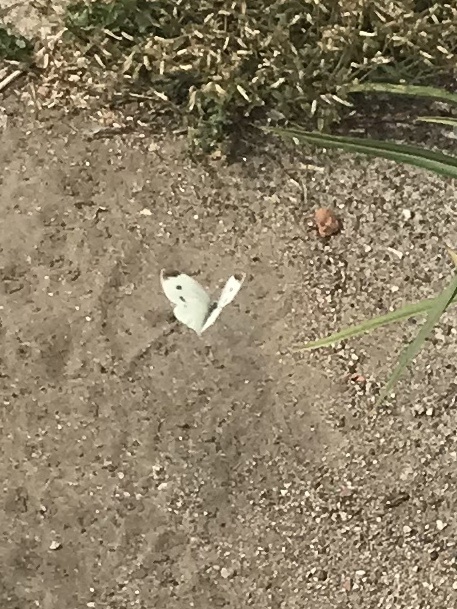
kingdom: Animalia
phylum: Arthropoda
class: Insecta
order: Lepidoptera
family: Pieridae
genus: Pieris
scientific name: Pieris rapae
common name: Small white
